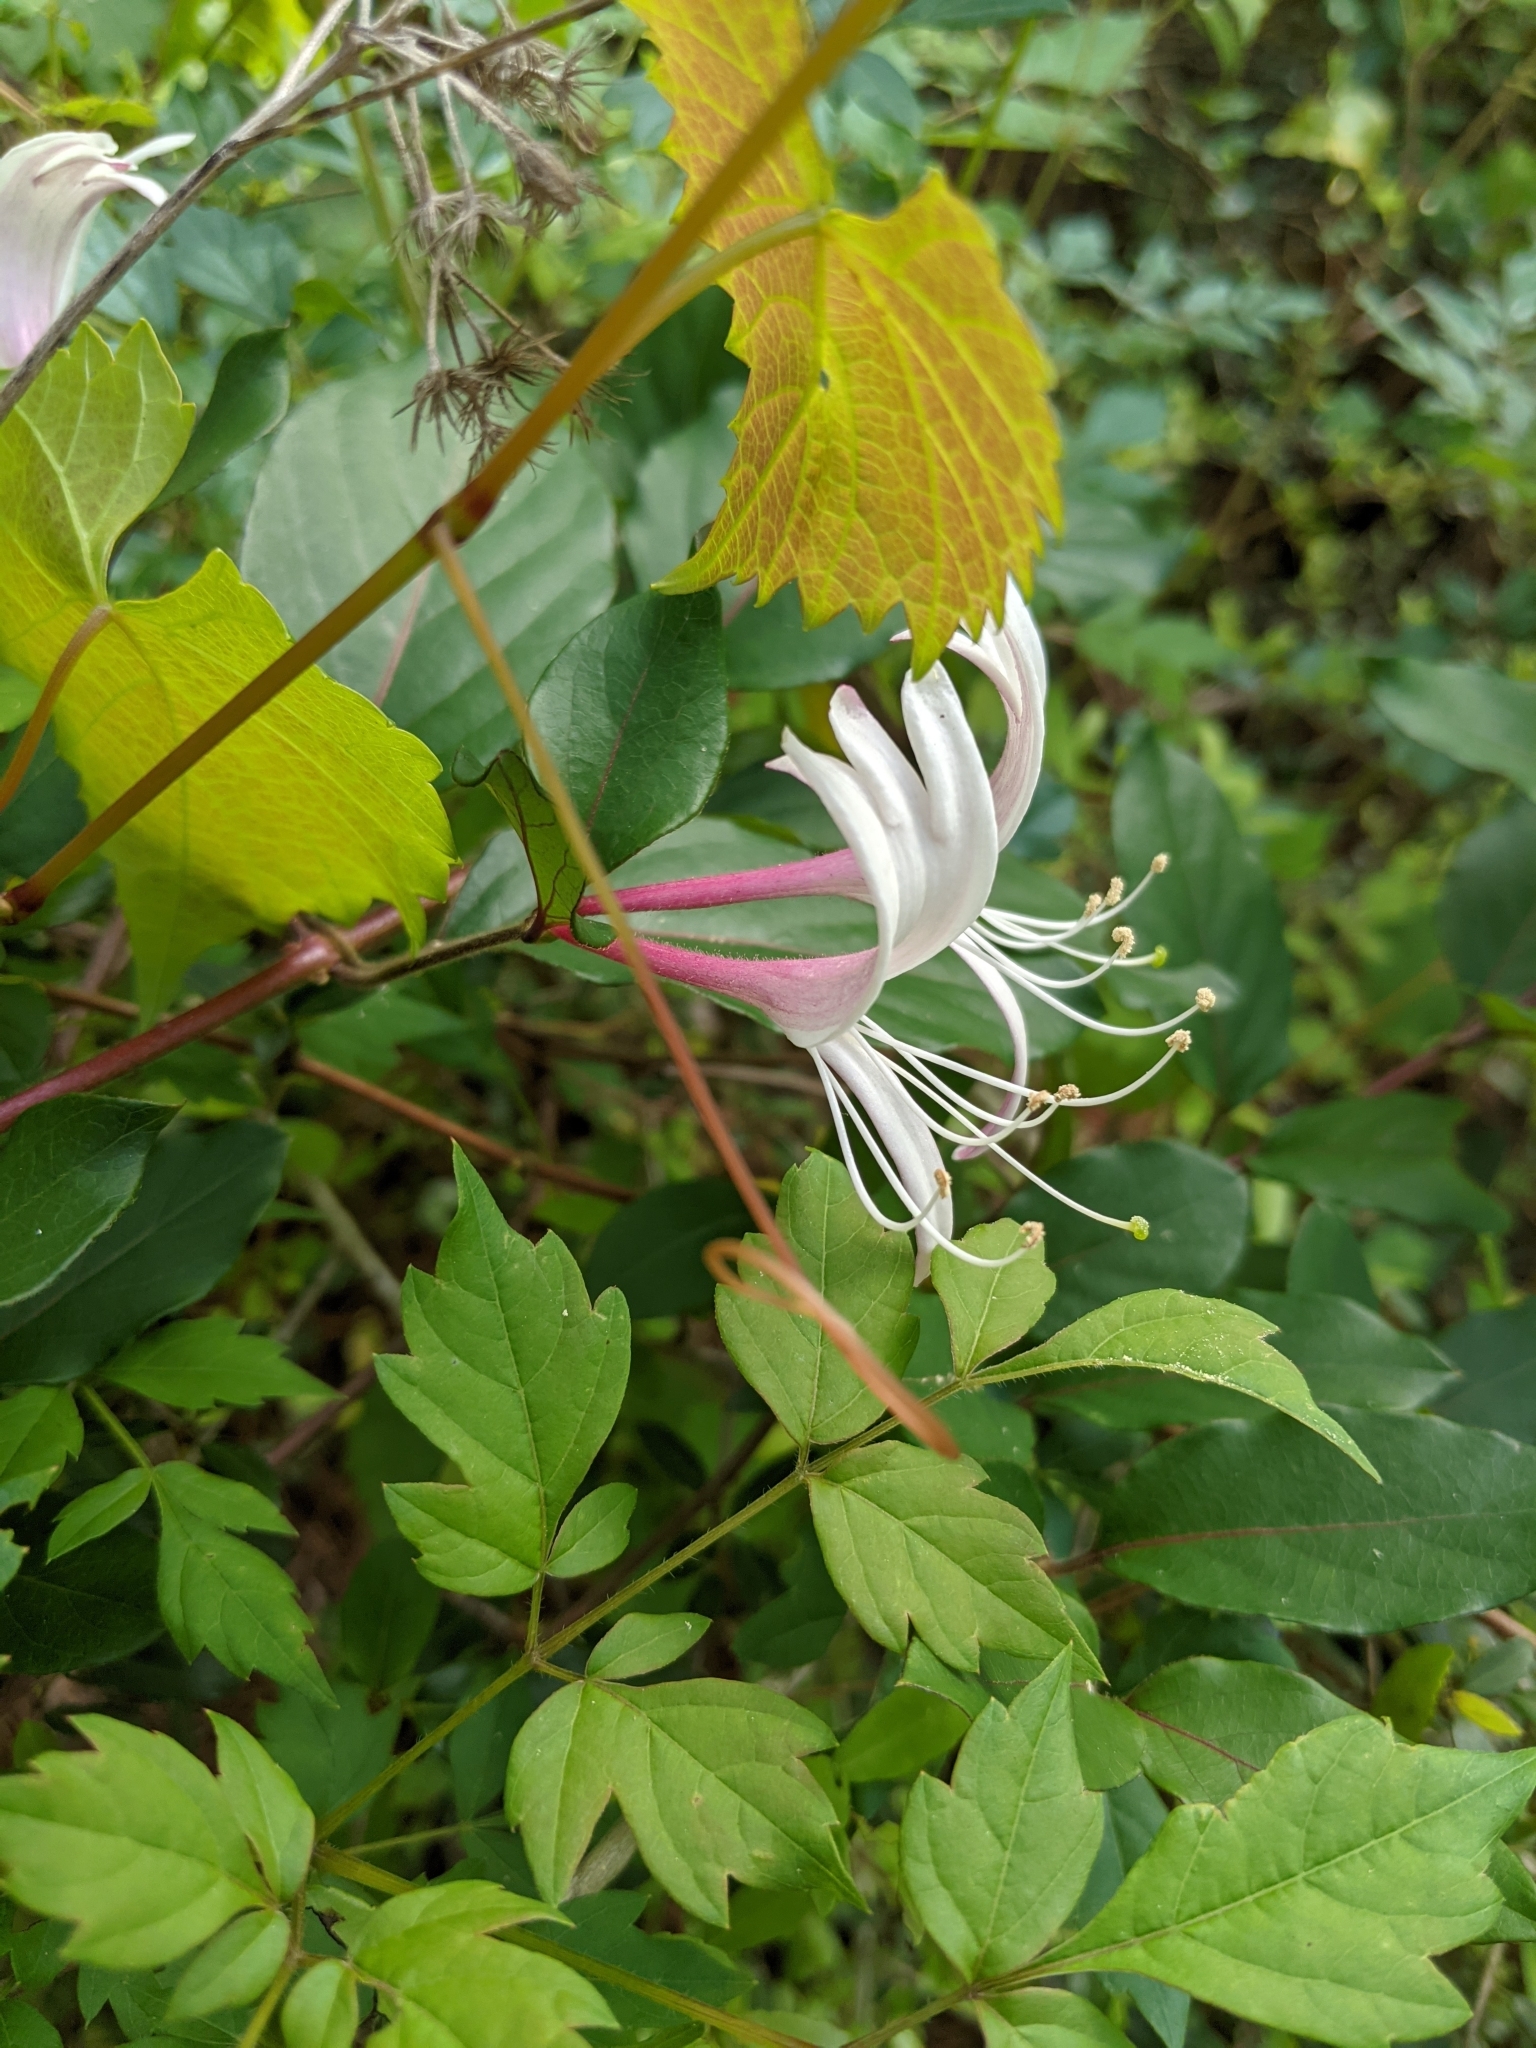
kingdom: Plantae
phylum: Tracheophyta
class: Magnoliopsida
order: Dipsacales
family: Caprifoliaceae
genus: Lonicera
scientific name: Lonicera japonica
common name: Japanese honeysuckle
